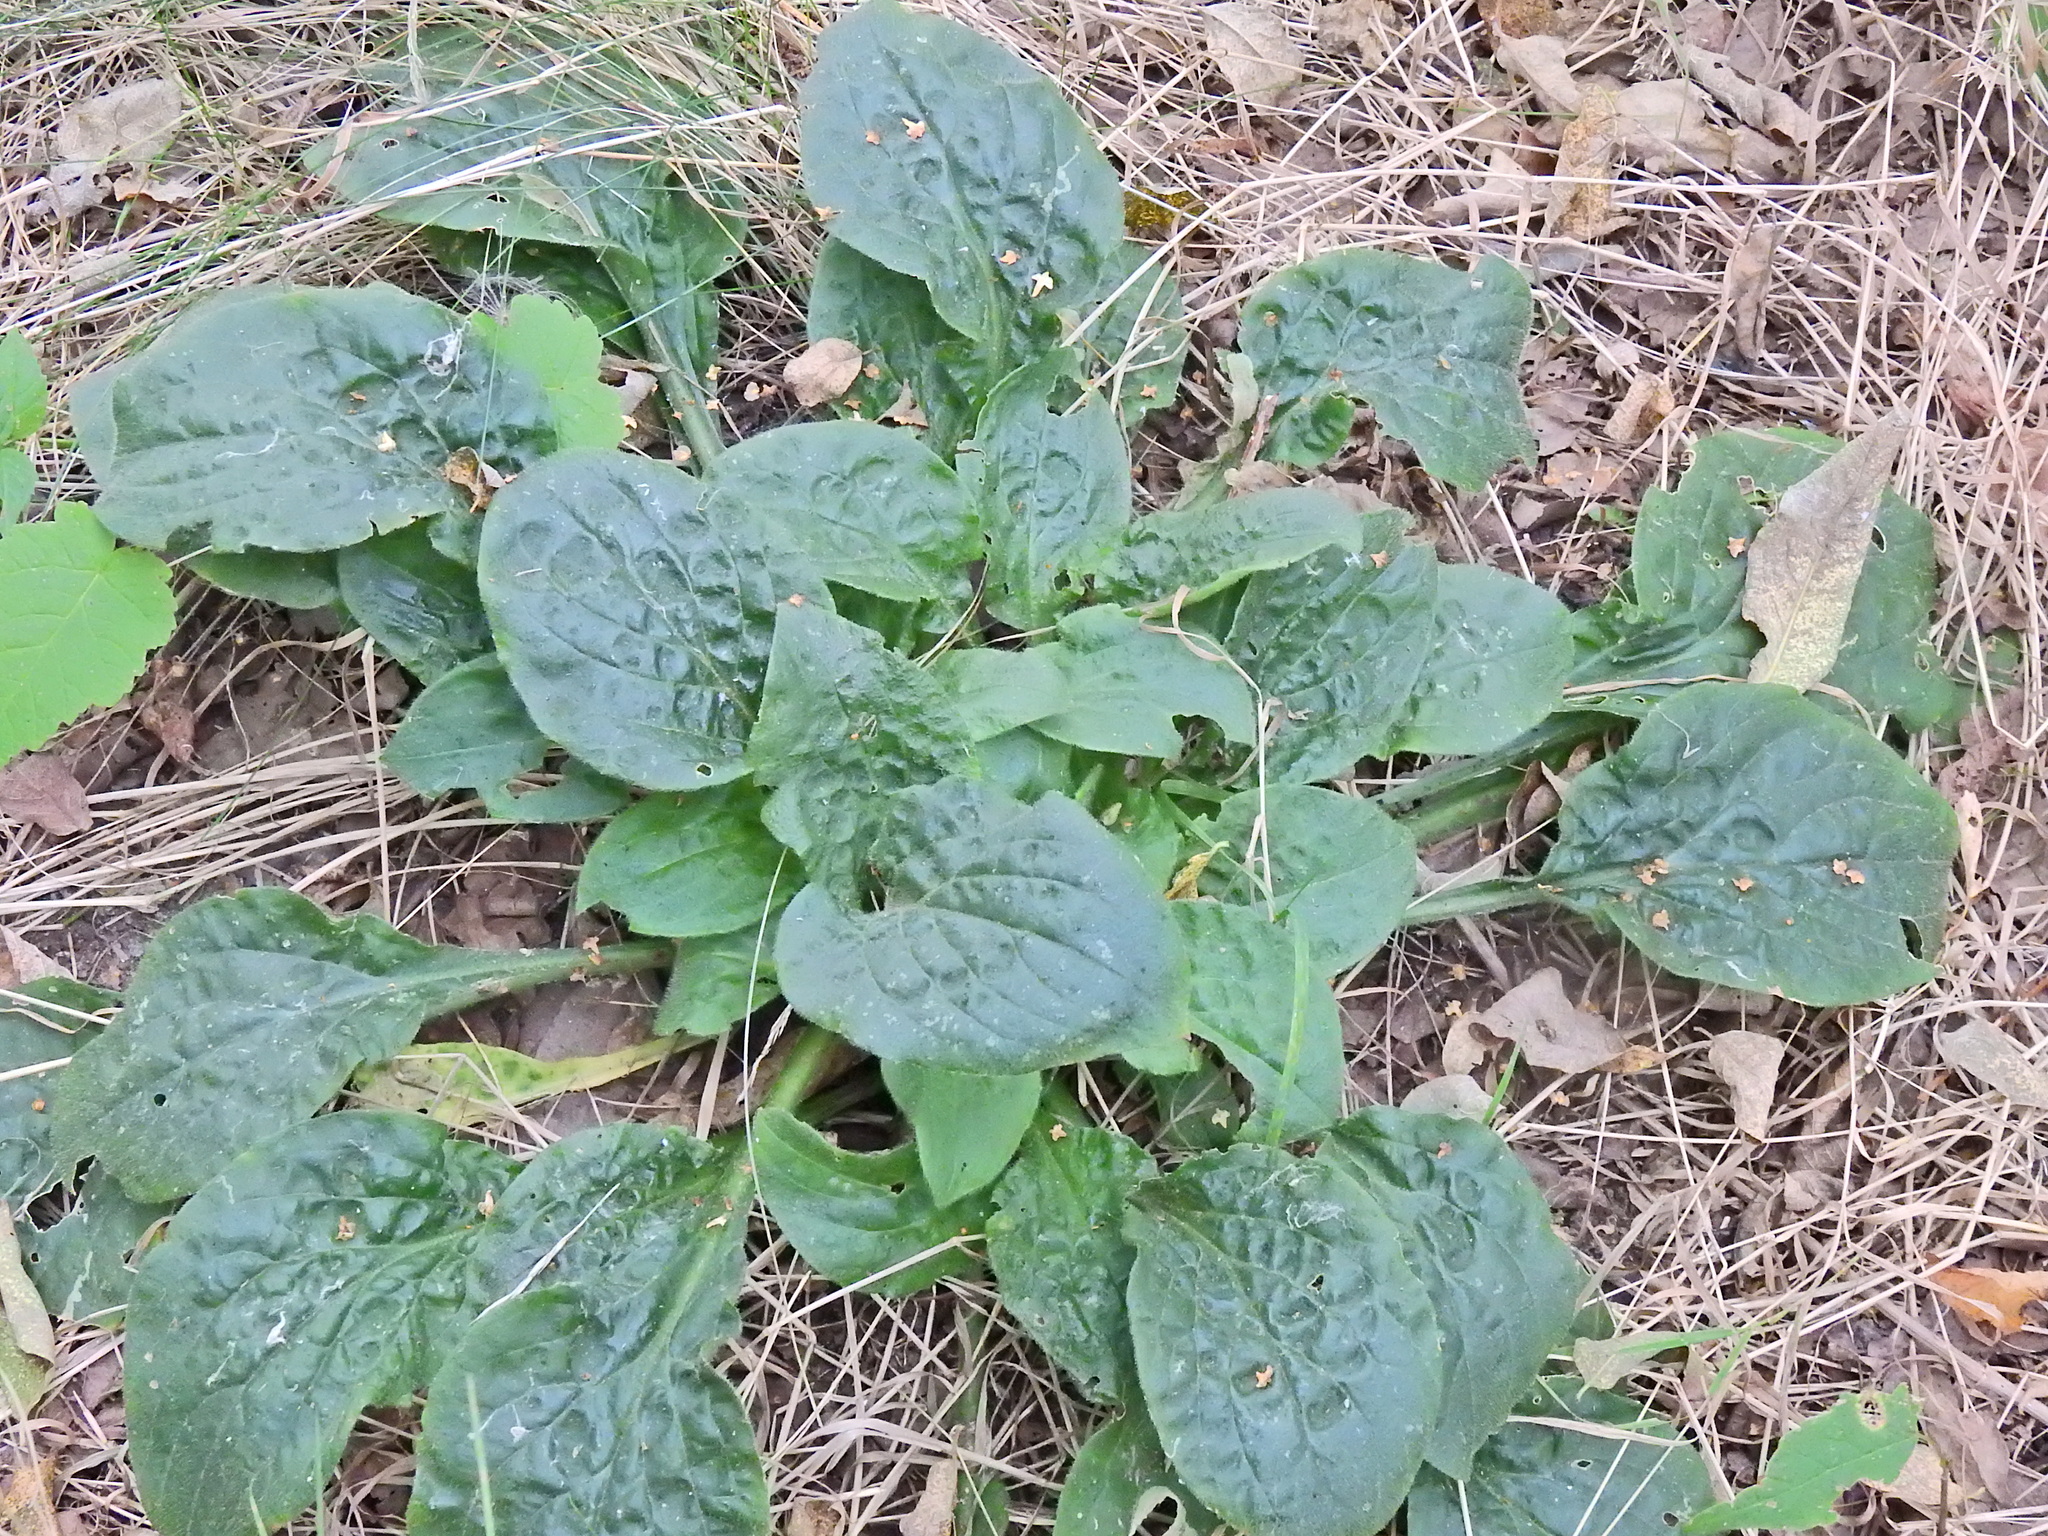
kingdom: Plantae
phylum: Tracheophyta
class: Magnoliopsida
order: Lamiales
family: Plantaginaceae
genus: Plantago
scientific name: Plantago major
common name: Common plantain
